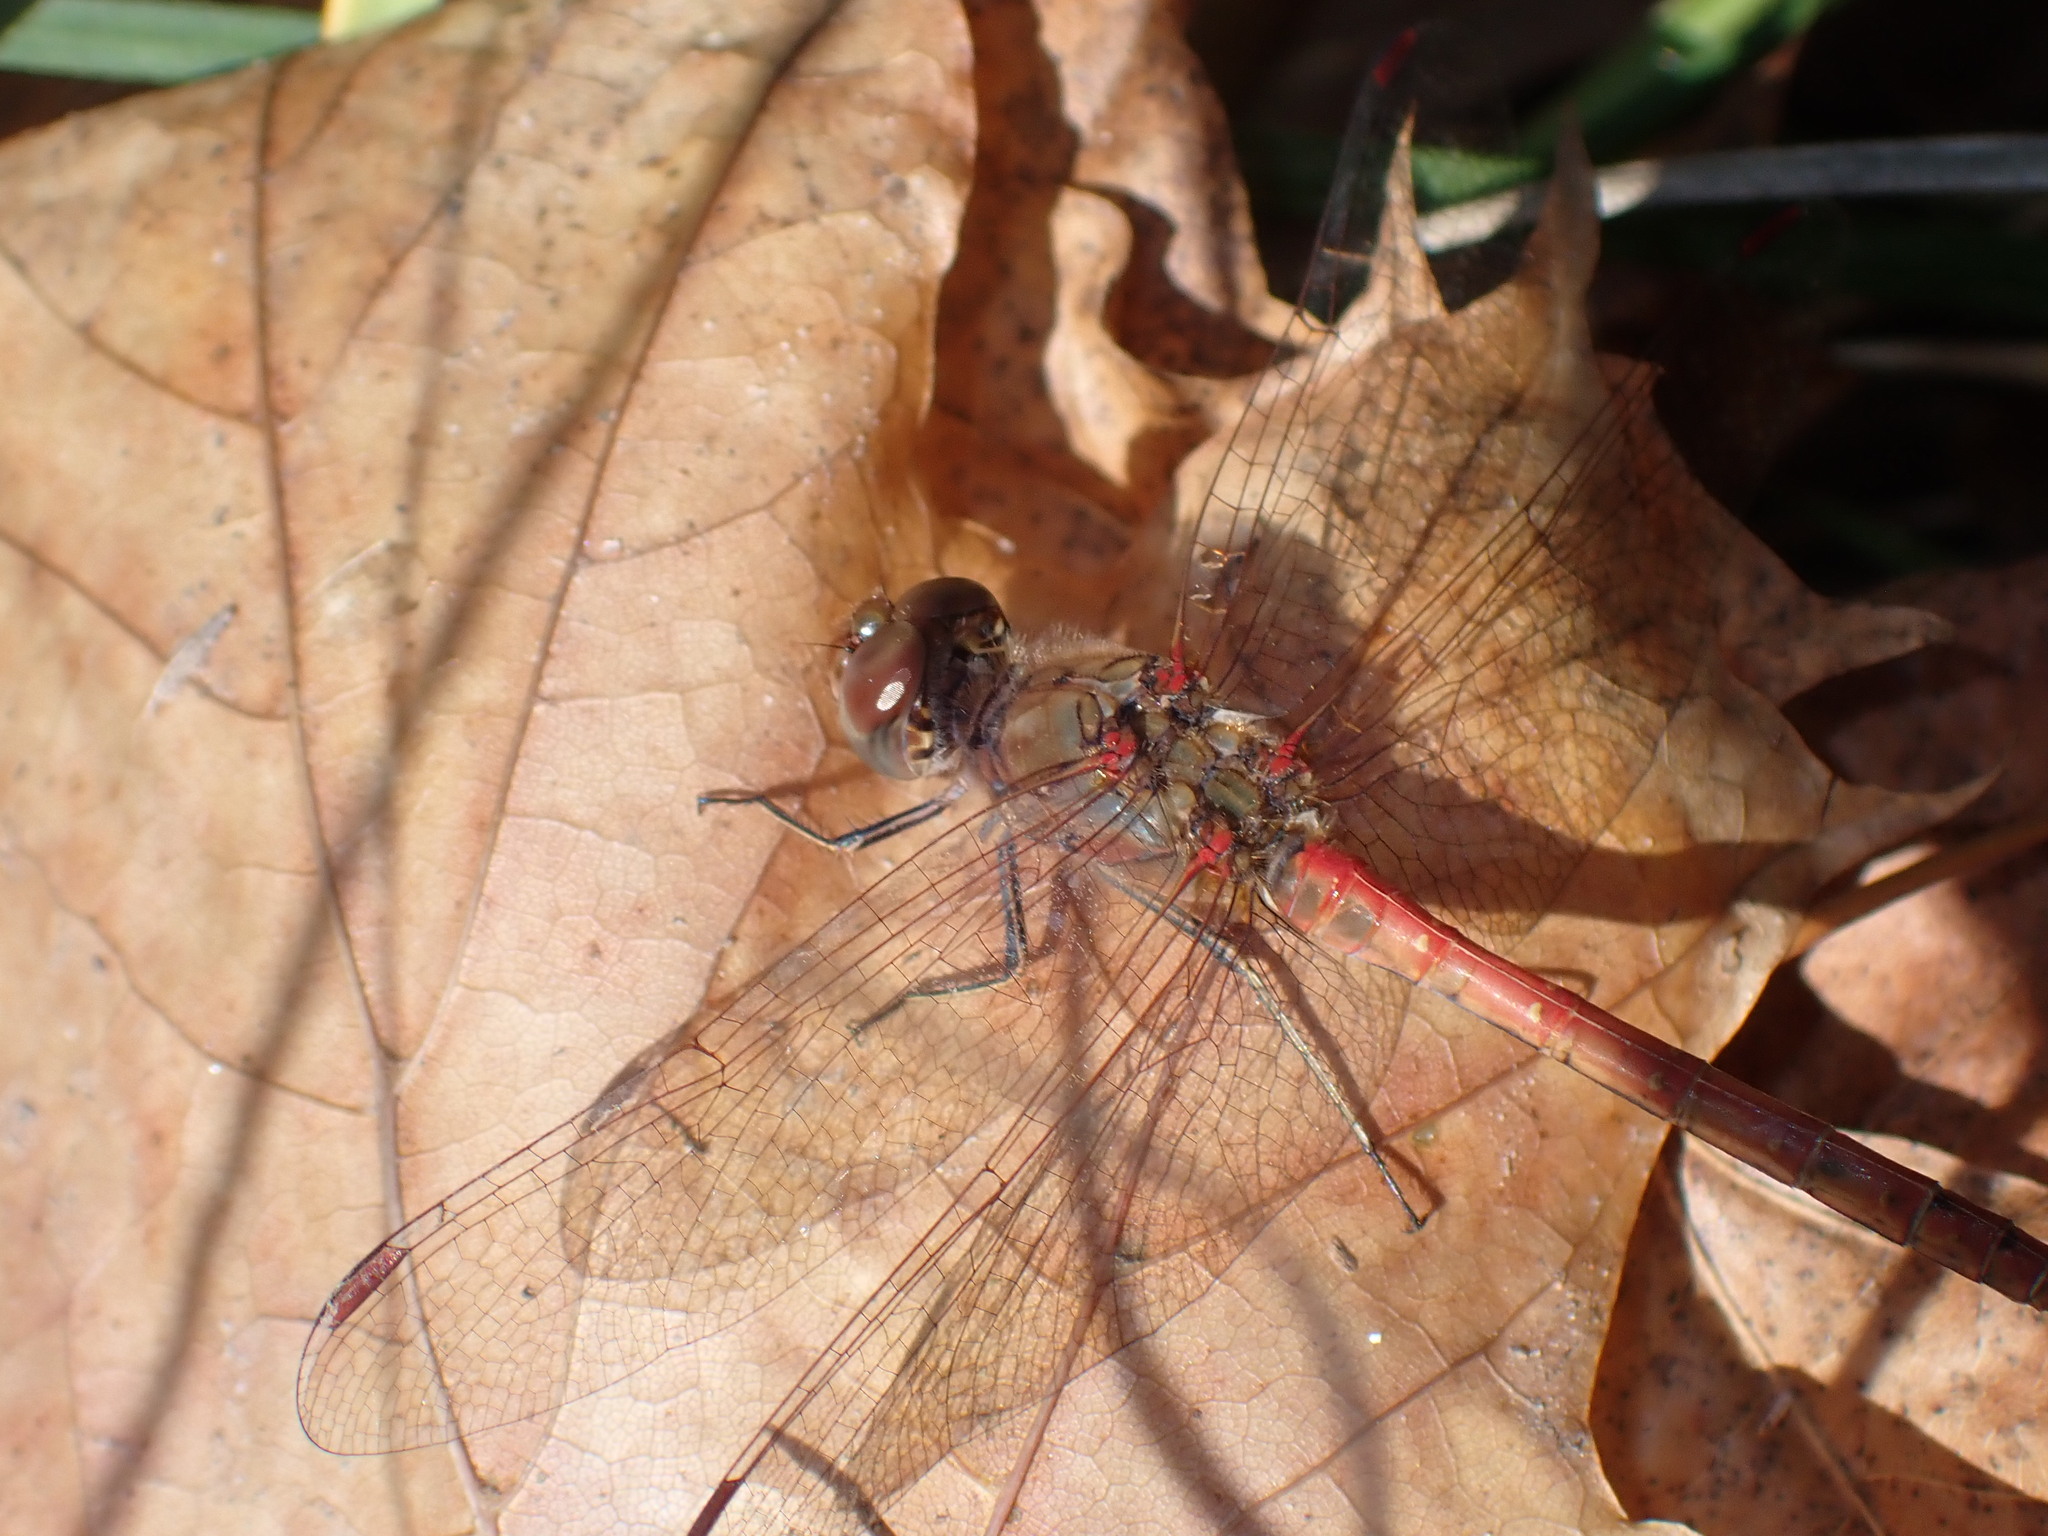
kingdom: Animalia
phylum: Arthropoda
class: Insecta
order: Odonata
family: Libellulidae
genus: Sympetrum
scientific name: Sympetrum striolatum
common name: Common darter
